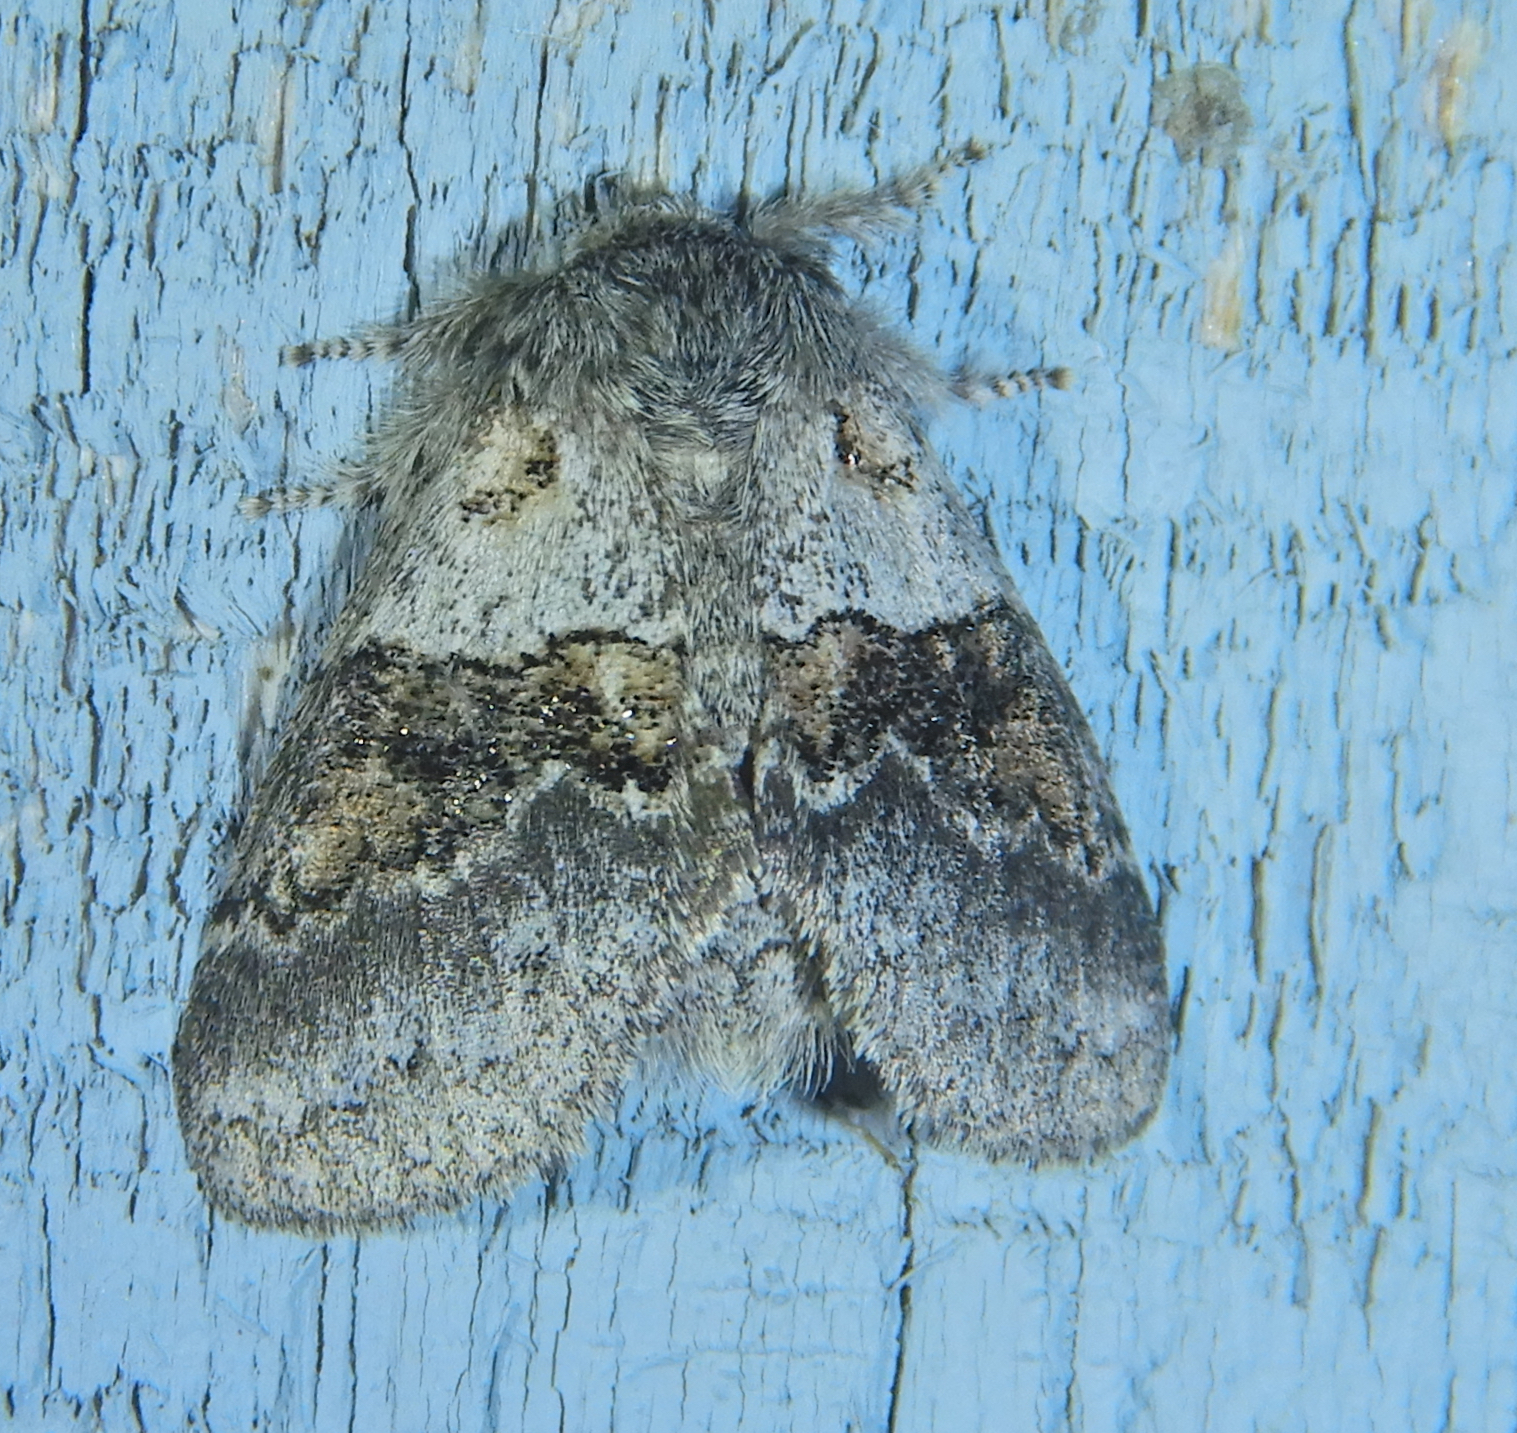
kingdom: Animalia
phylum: Arthropoda
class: Insecta
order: Lepidoptera
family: Notodontidae
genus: Gluphisia
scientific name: Gluphisia septentrionis
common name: Common gluphisia
